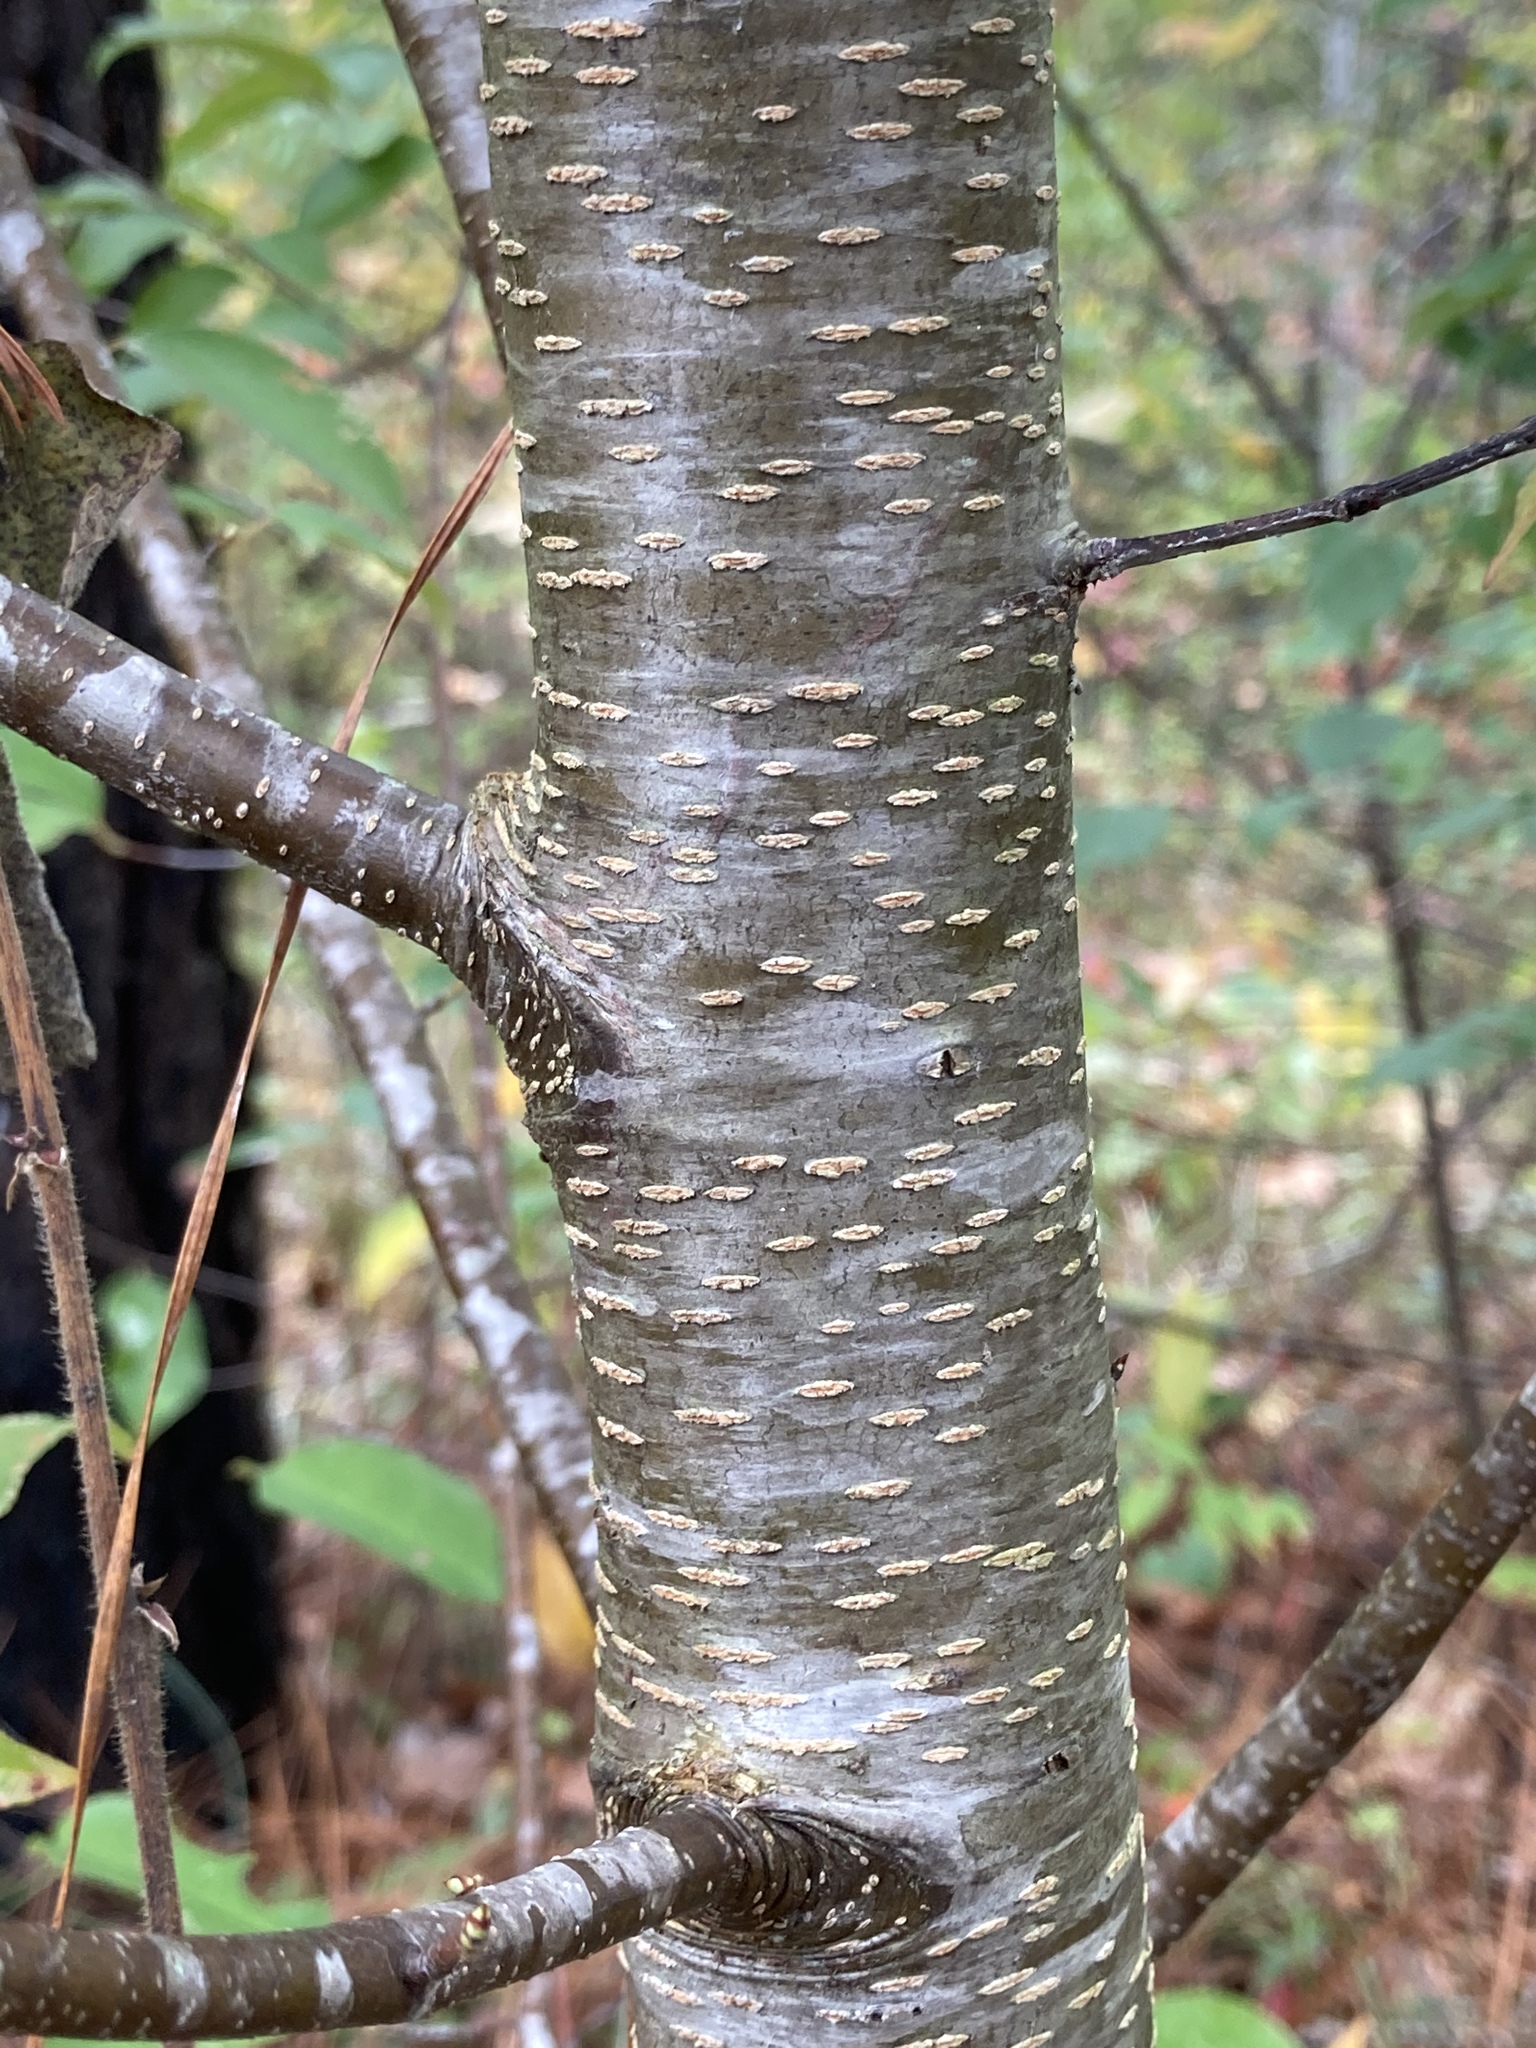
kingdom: Plantae
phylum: Tracheophyta
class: Magnoliopsida
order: Rosales
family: Rosaceae
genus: Prunus
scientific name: Prunus serotina
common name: Black cherry
